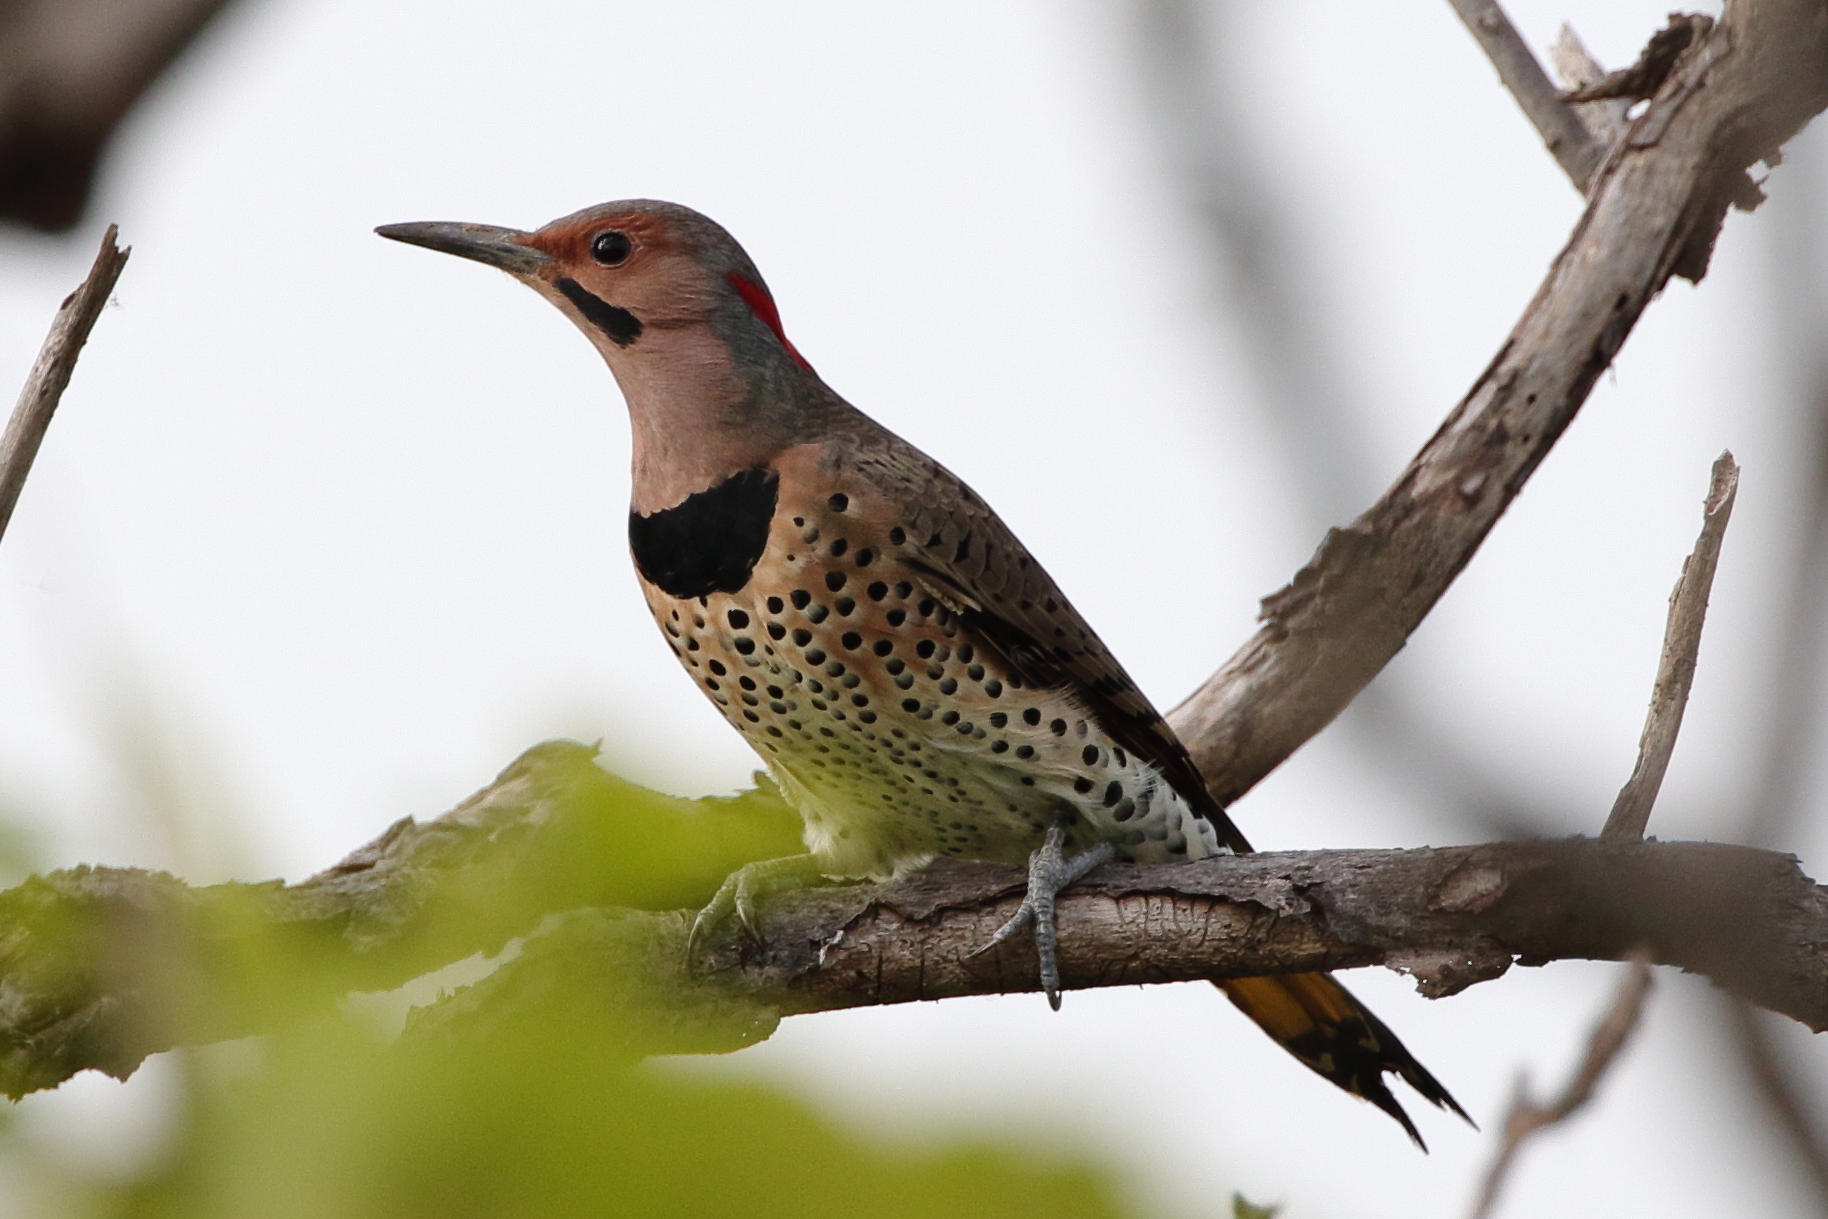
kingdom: Animalia
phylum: Chordata
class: Aves
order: Piciformes
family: Picidae
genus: Colaptes
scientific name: Colaptes auratus
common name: Northern flicker
